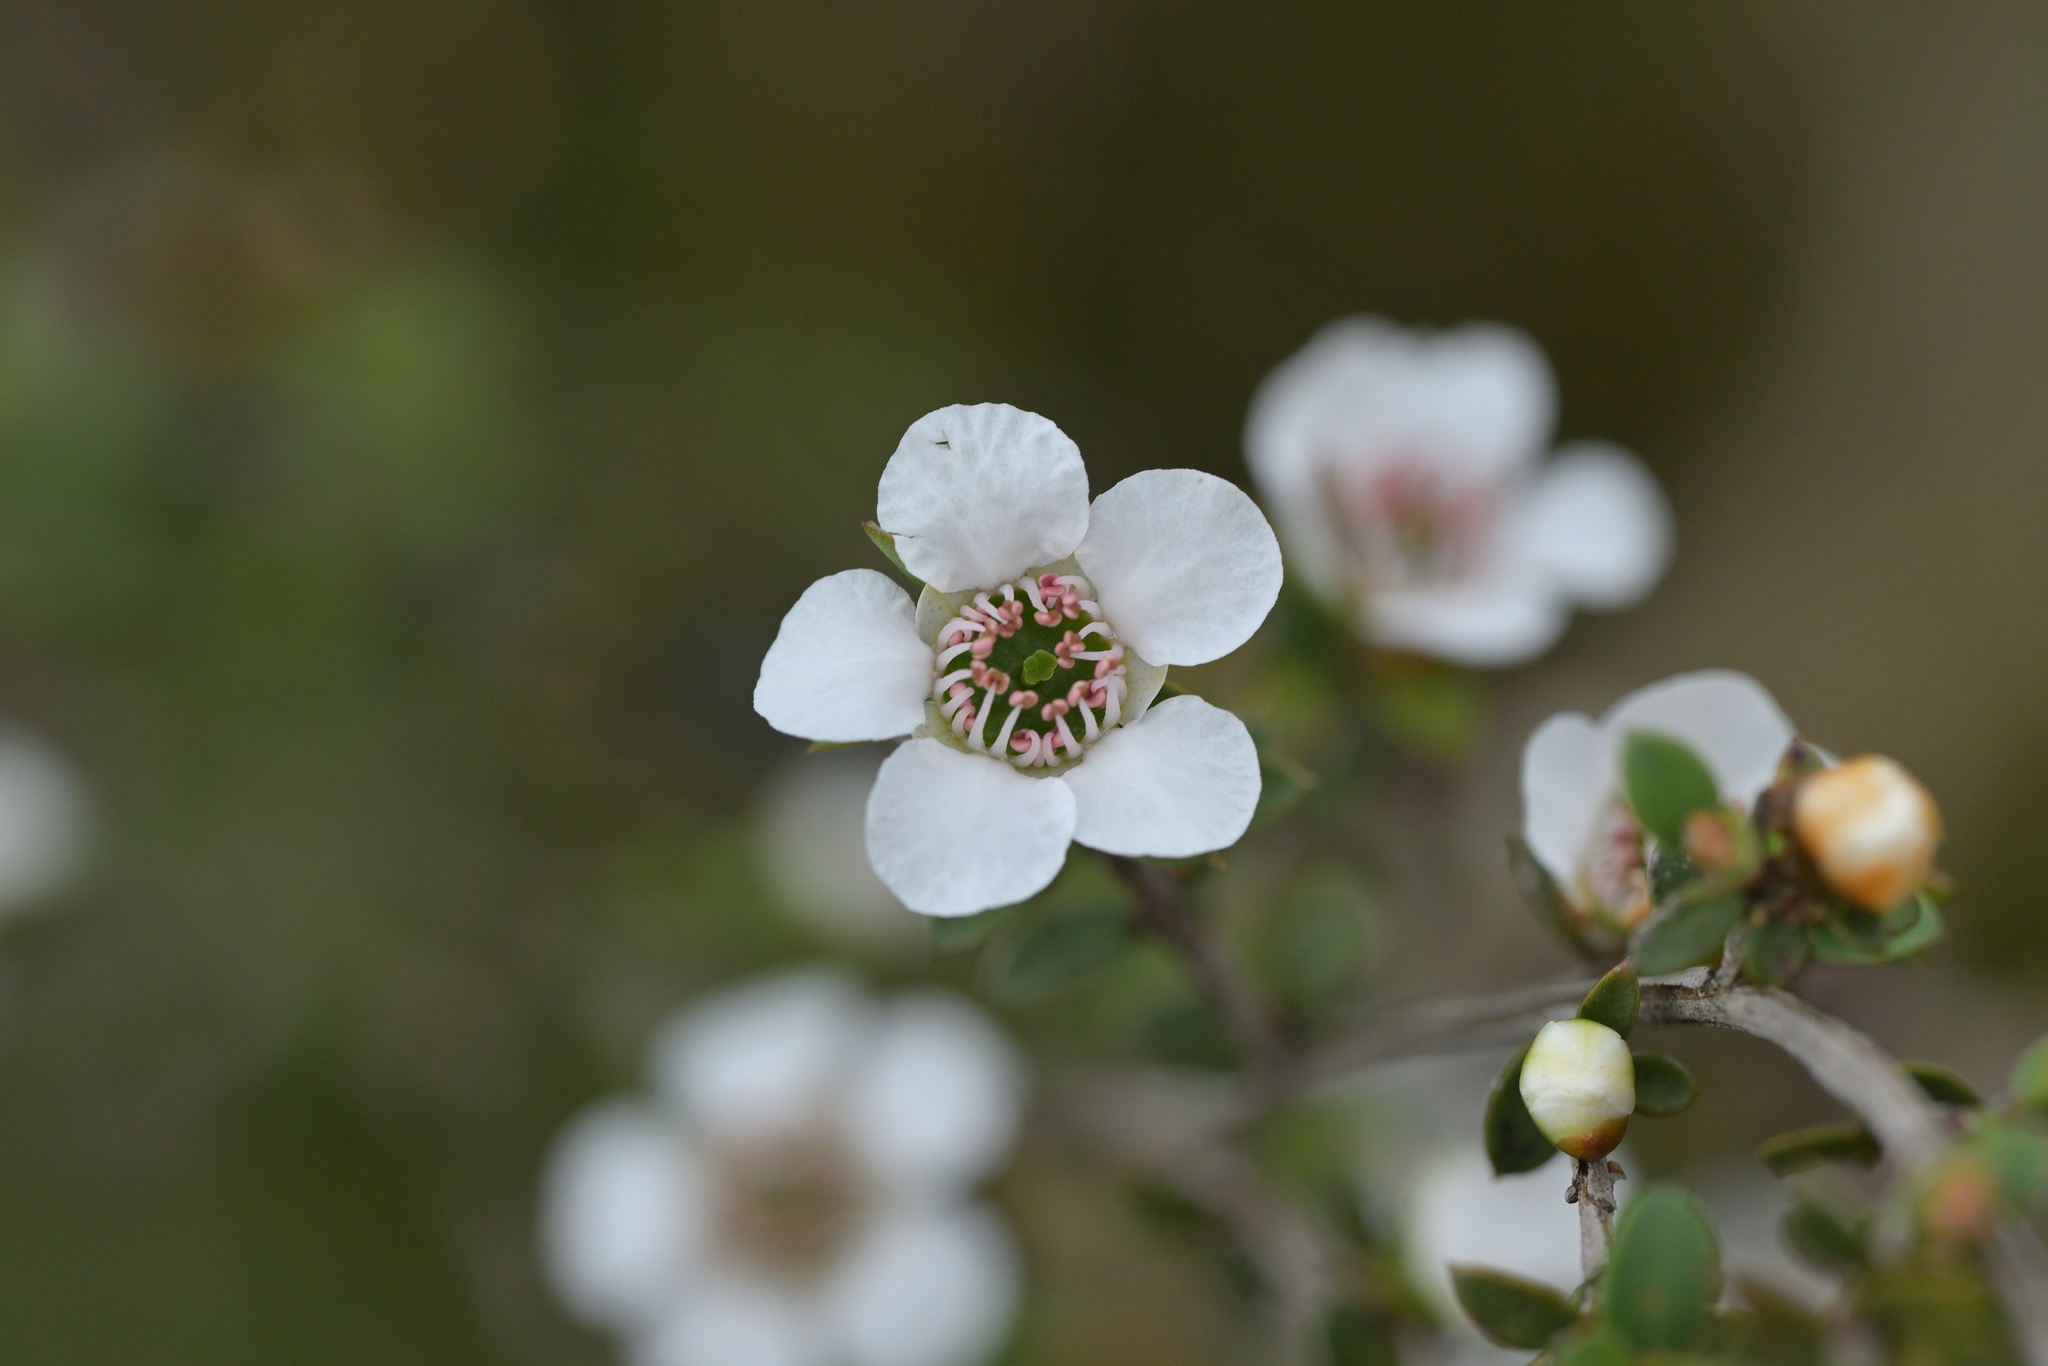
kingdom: Plantae
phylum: Tracheophyta
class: Magnoliopsida
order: Myrtales
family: Myrtaceae
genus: Leptospermum
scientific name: Leptospermum scoparium
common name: Broom tea-tree
